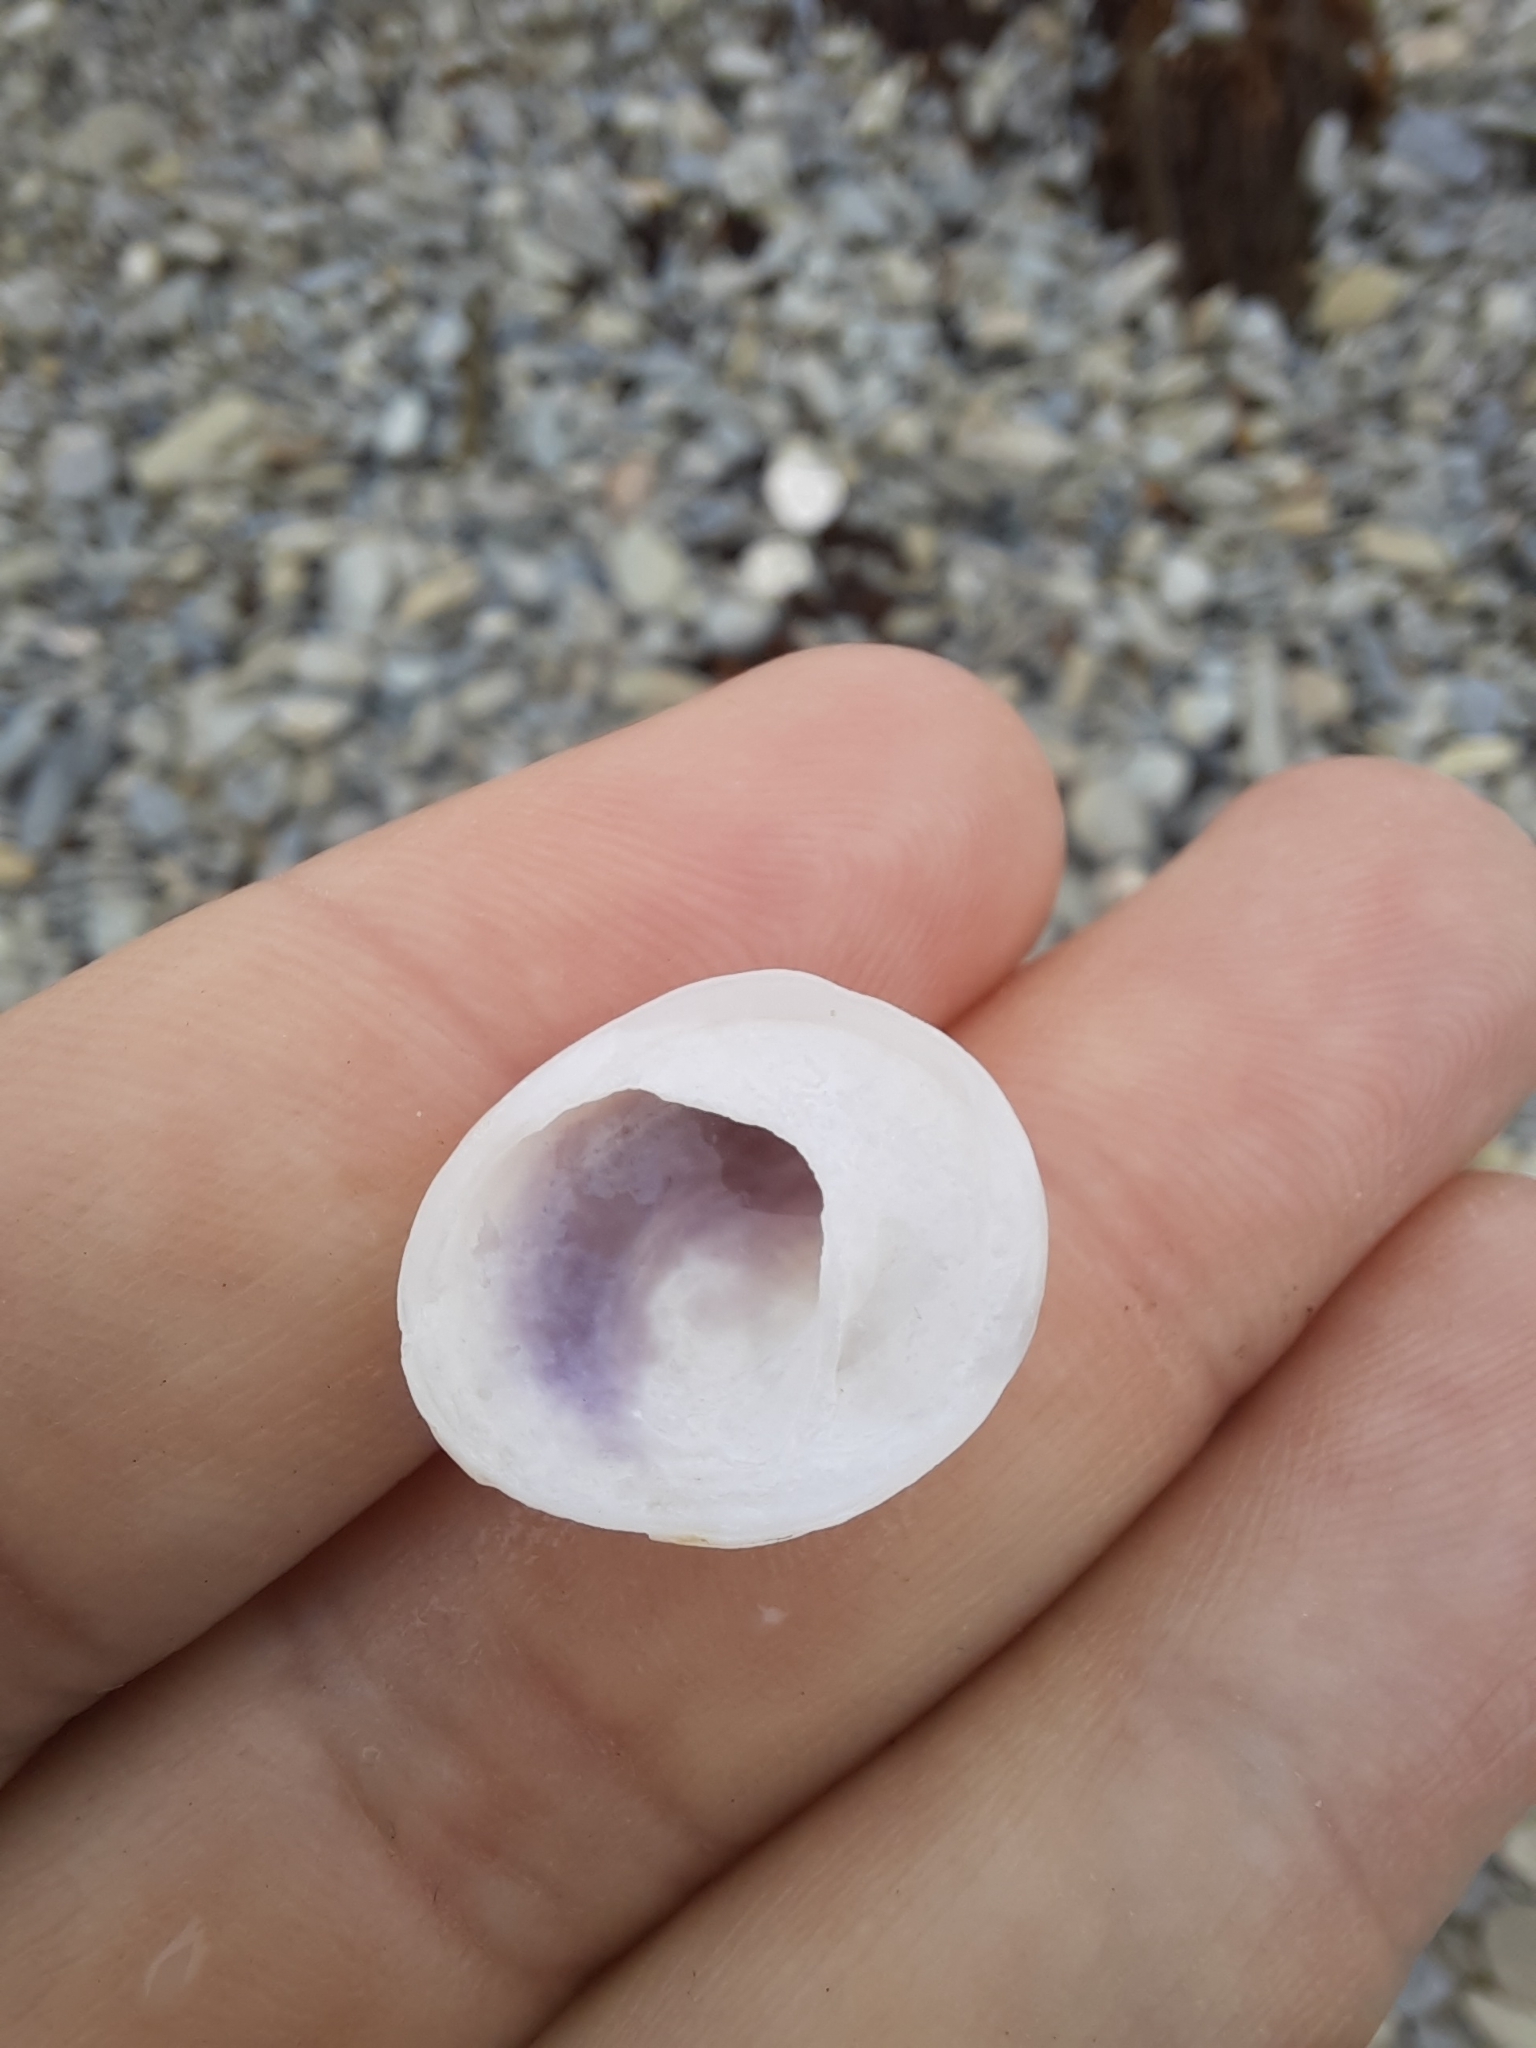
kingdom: Animalia
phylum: Mollusca
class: Gastropoda
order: Littorinimorpha
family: Calyptraeidae
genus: Sigapatella
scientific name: Sigapatella novaezelandiae
